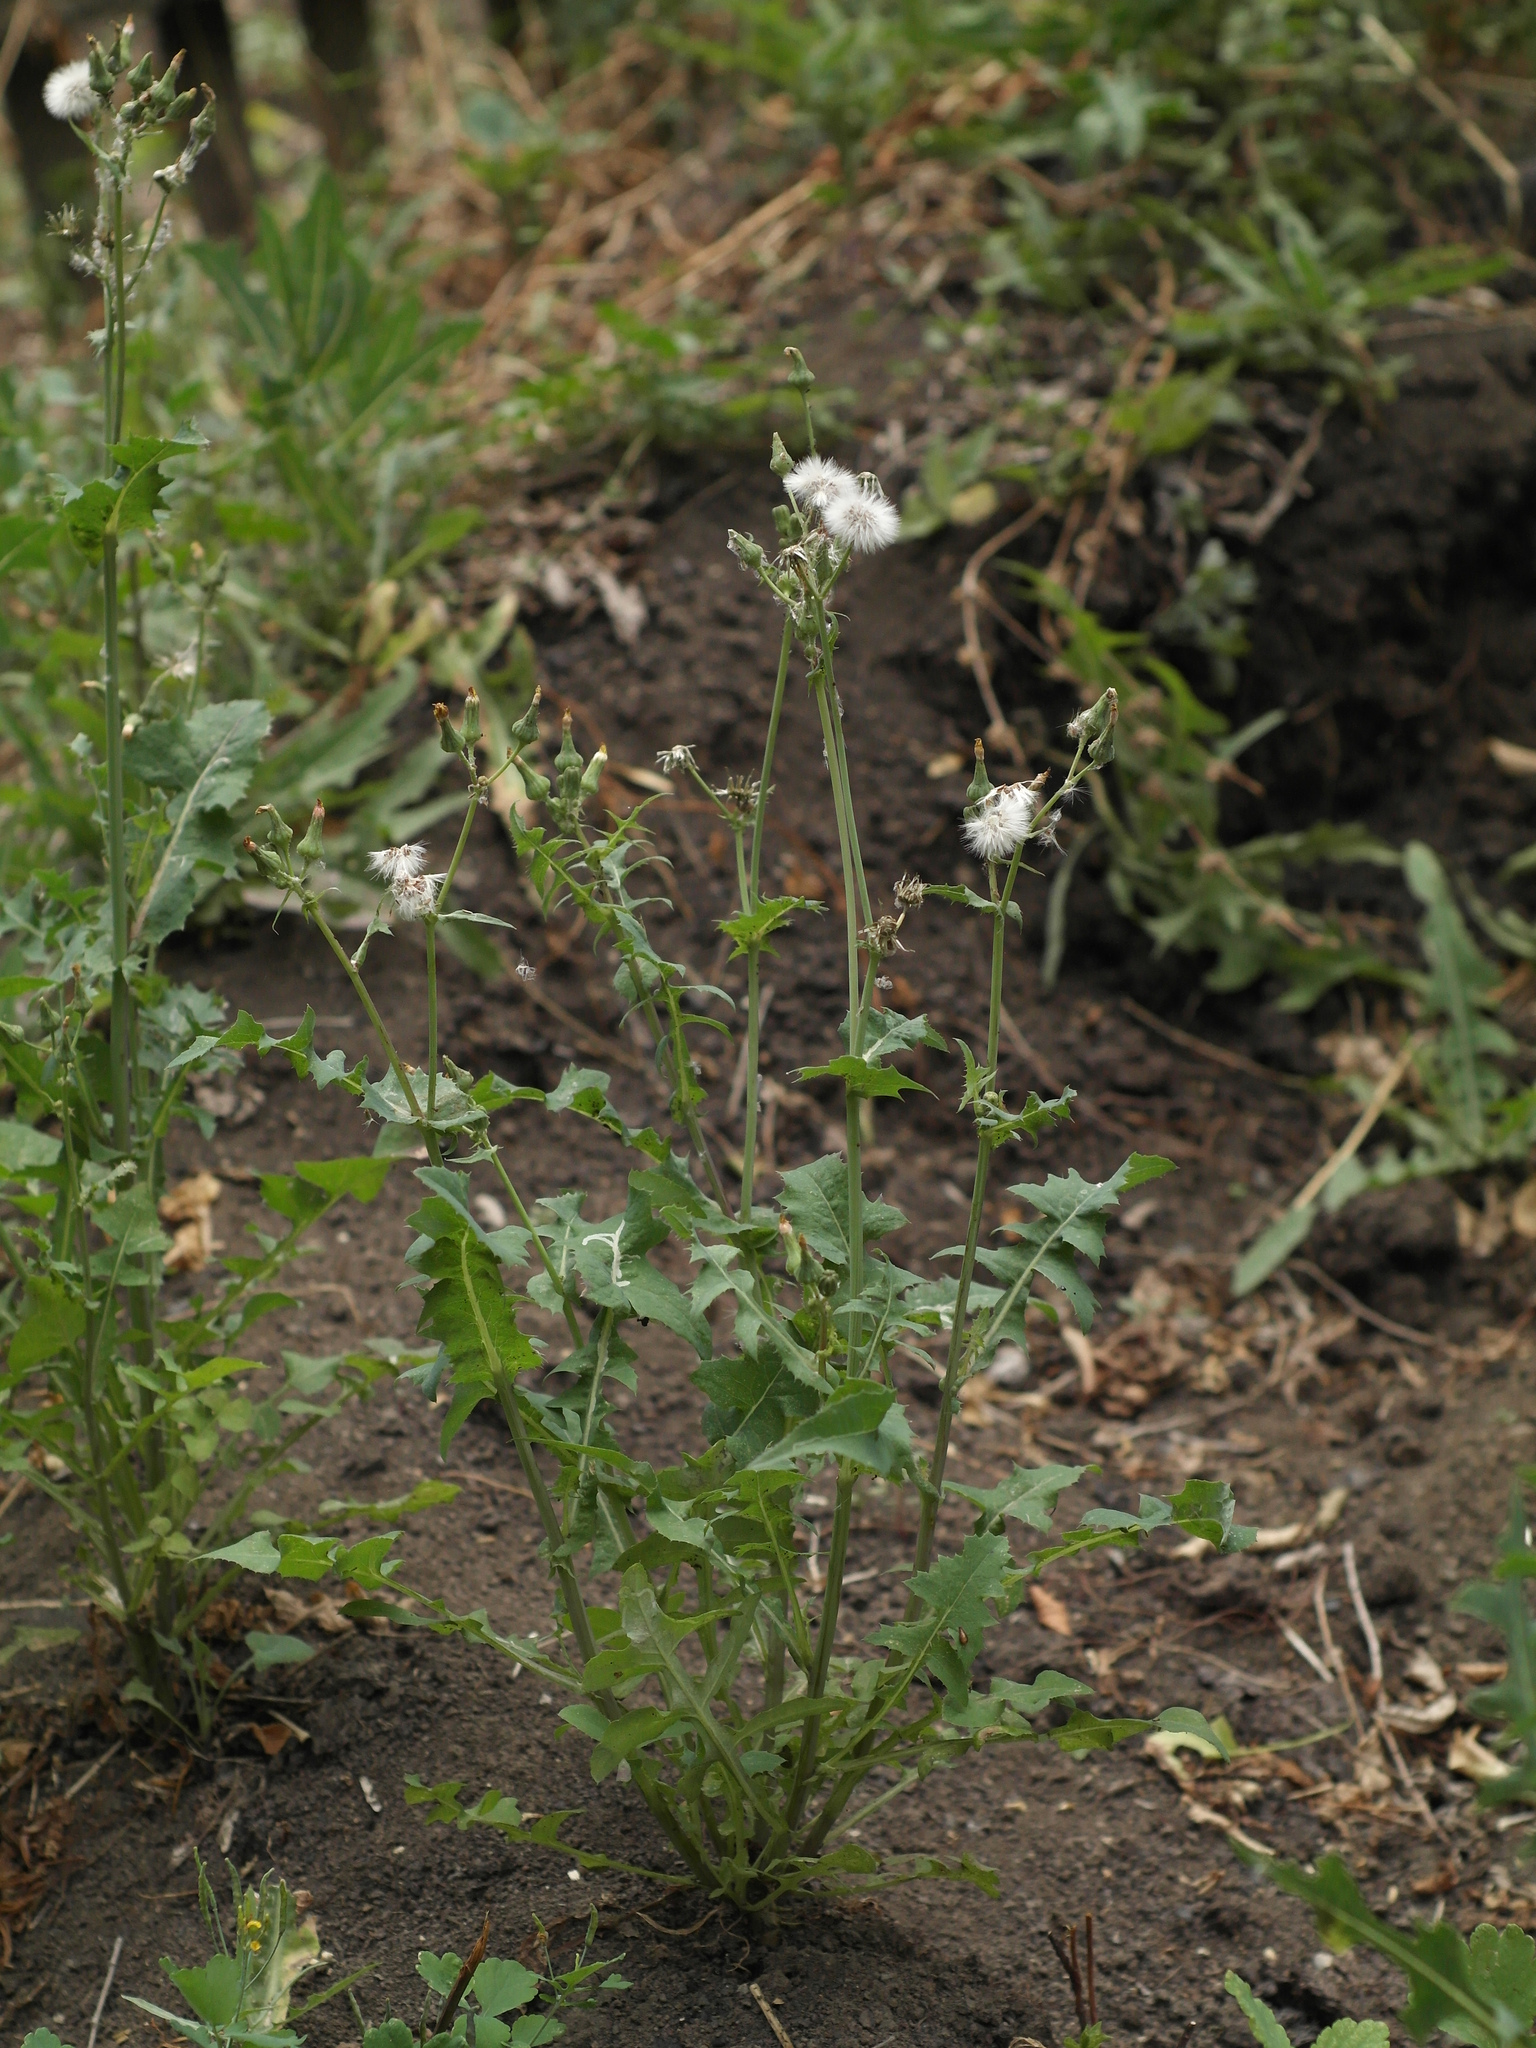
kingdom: Plantae
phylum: Tracheophyta
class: Magnoliopsida
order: Asterales
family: Asteraceae
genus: Sonchus
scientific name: Sonchus oleraceus
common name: Common sowthistle
